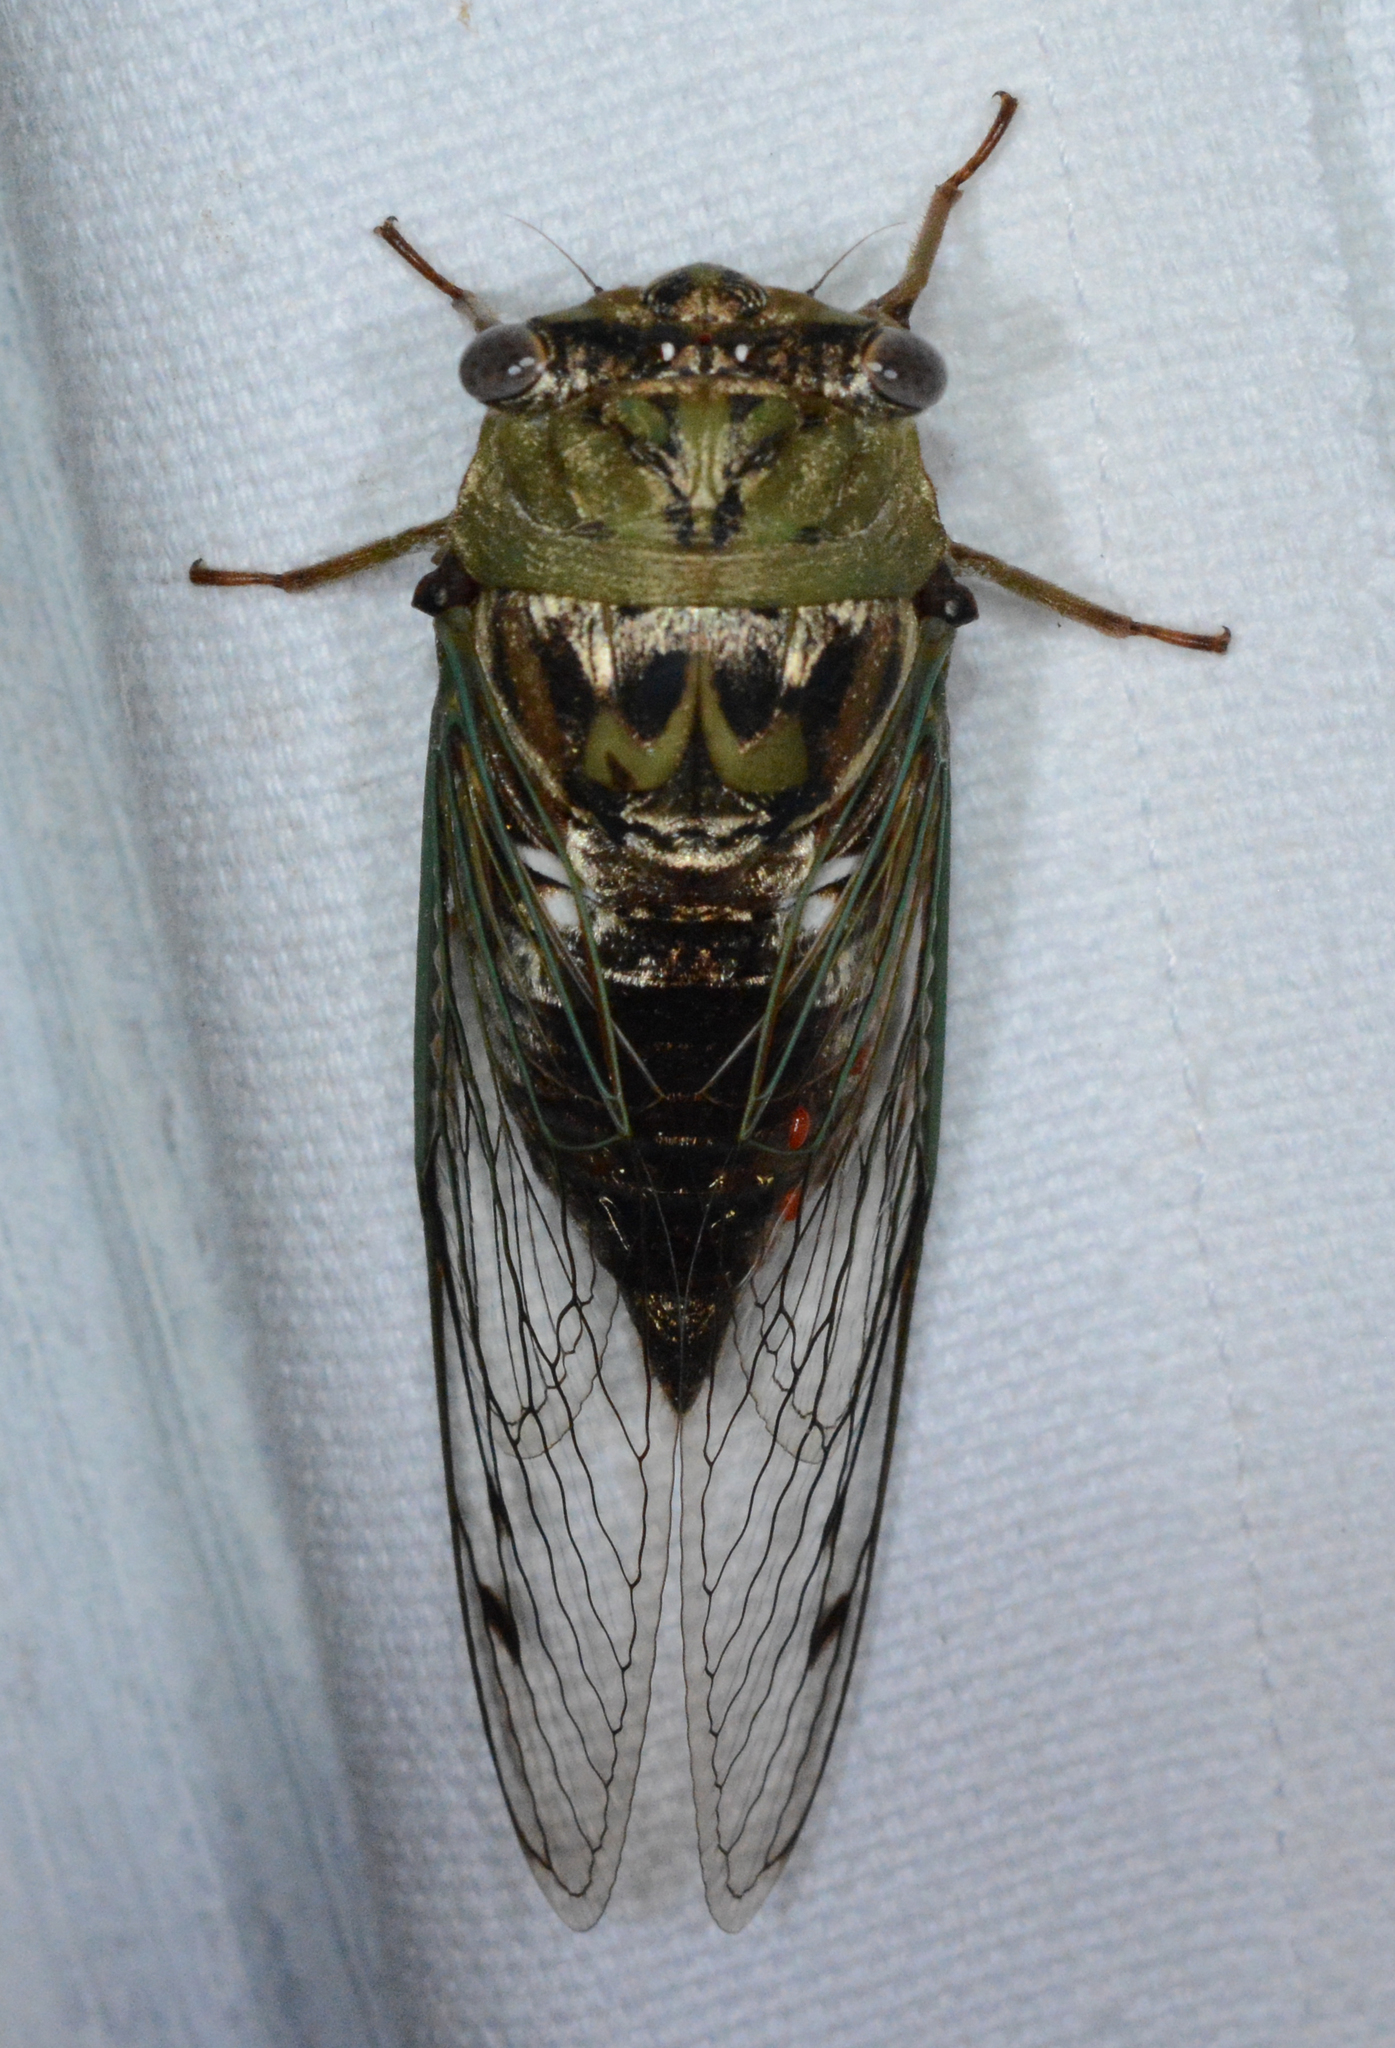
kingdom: Animalia
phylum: Arthropoda
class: Insecta
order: Hemiptera
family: Cicadidae
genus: Megatibicen
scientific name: Megatibicen resh
